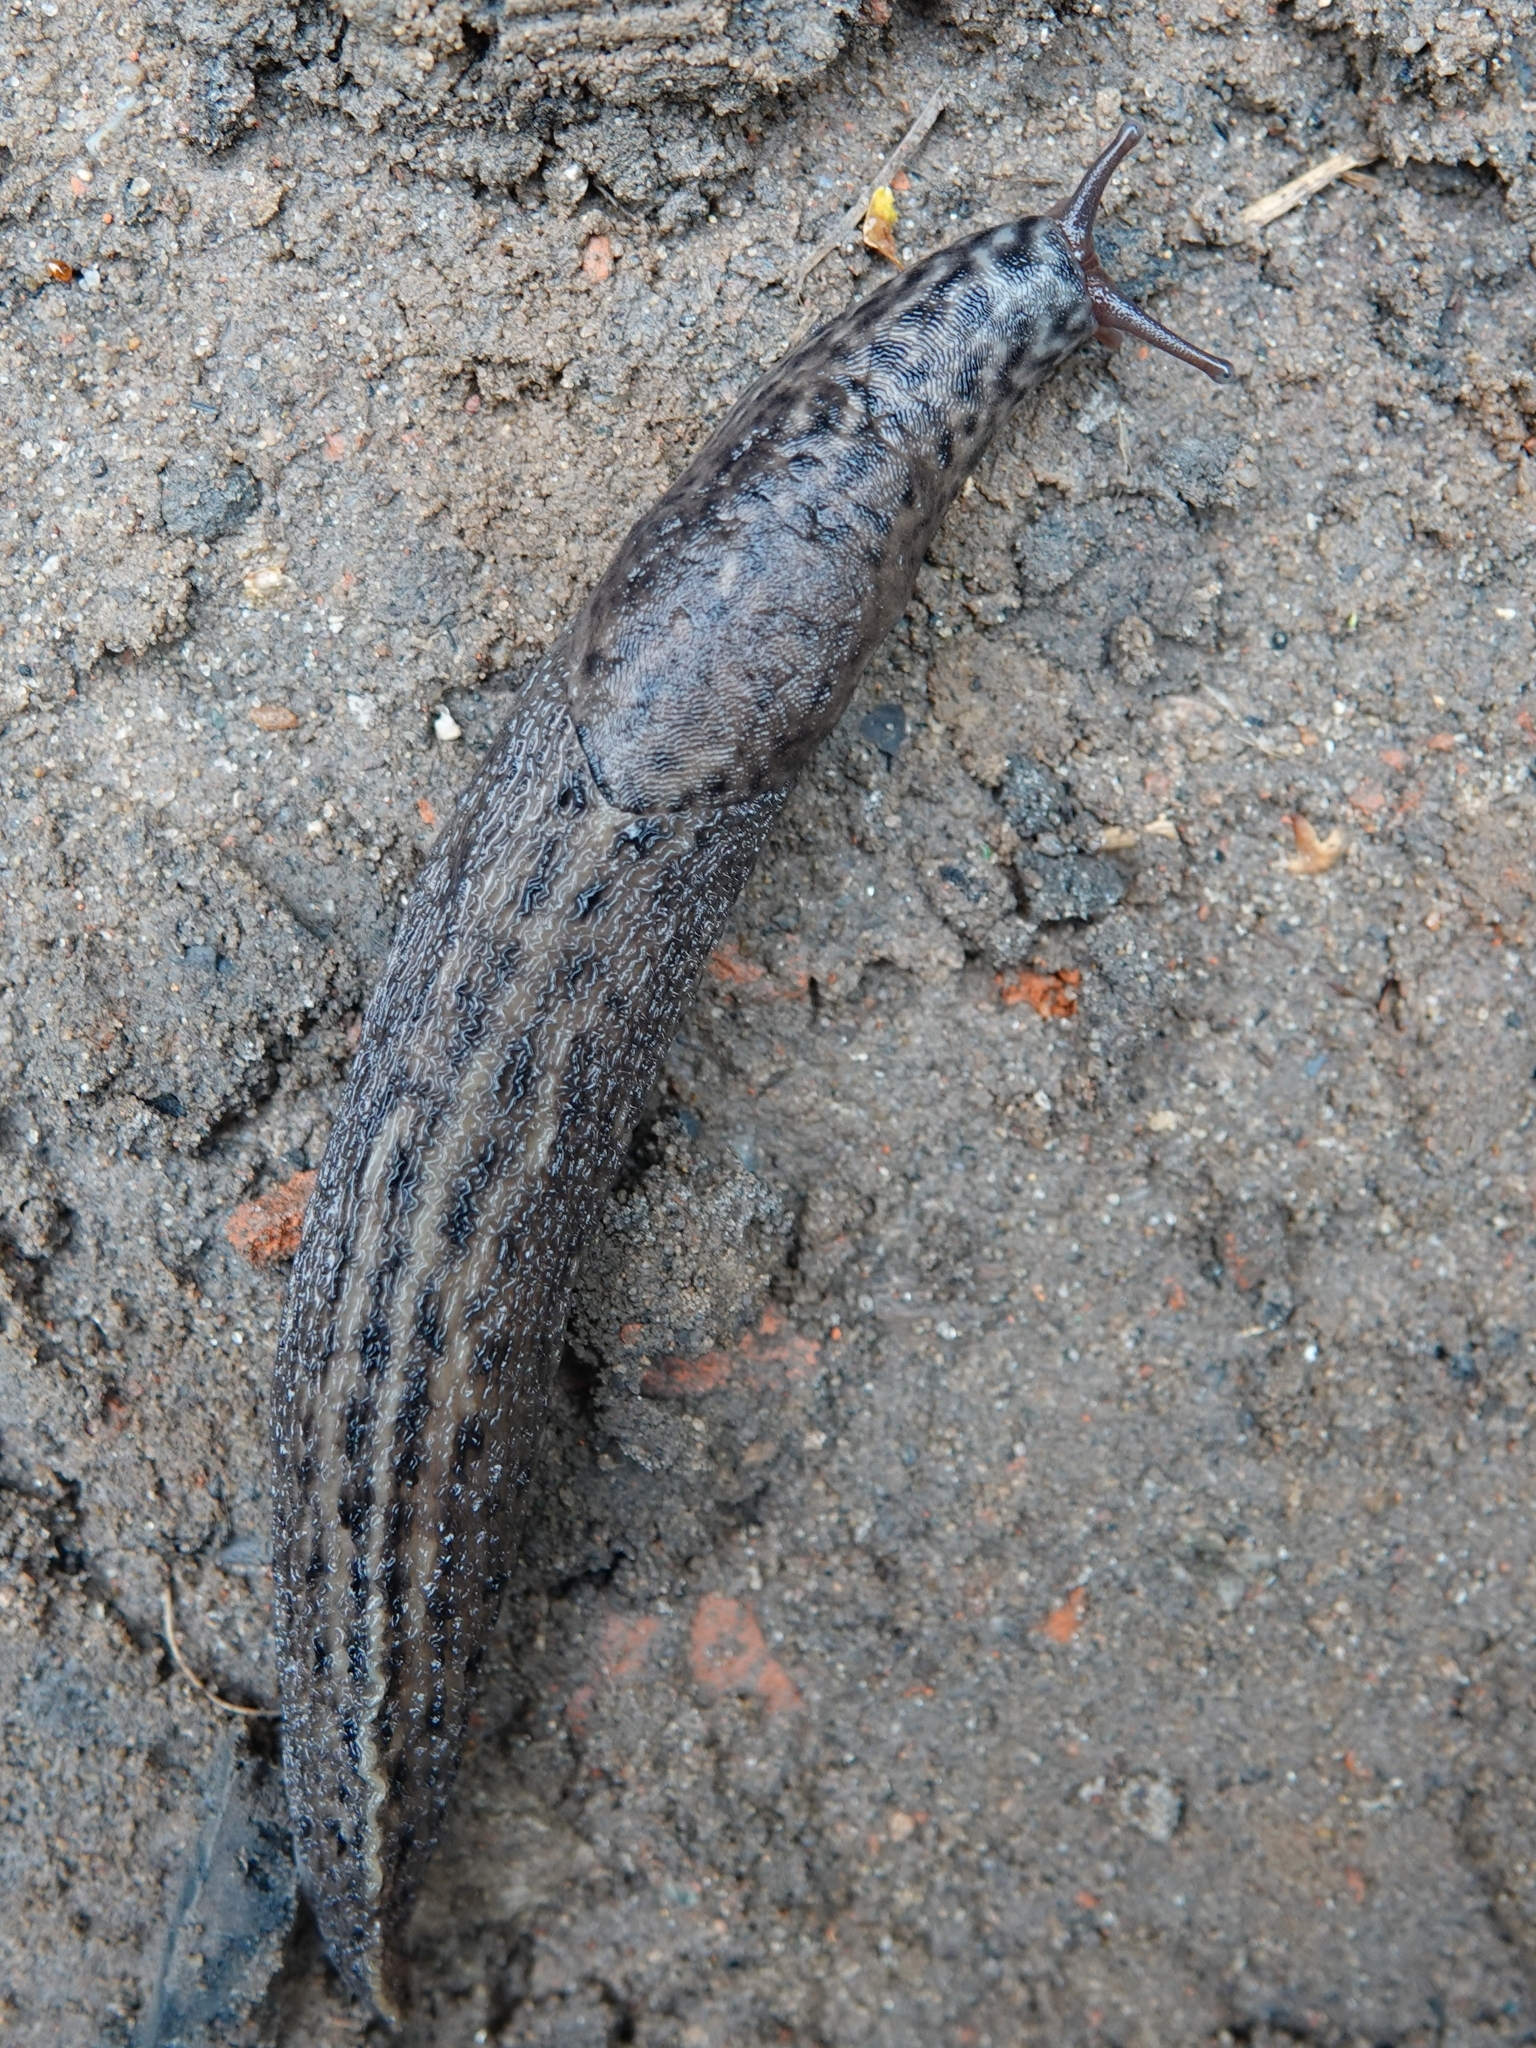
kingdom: Animalia
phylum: Mollusca
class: Gastropoda
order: Stylommatophora
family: Limacidae
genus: Limax
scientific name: Limax maximus
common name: Great grey slug
